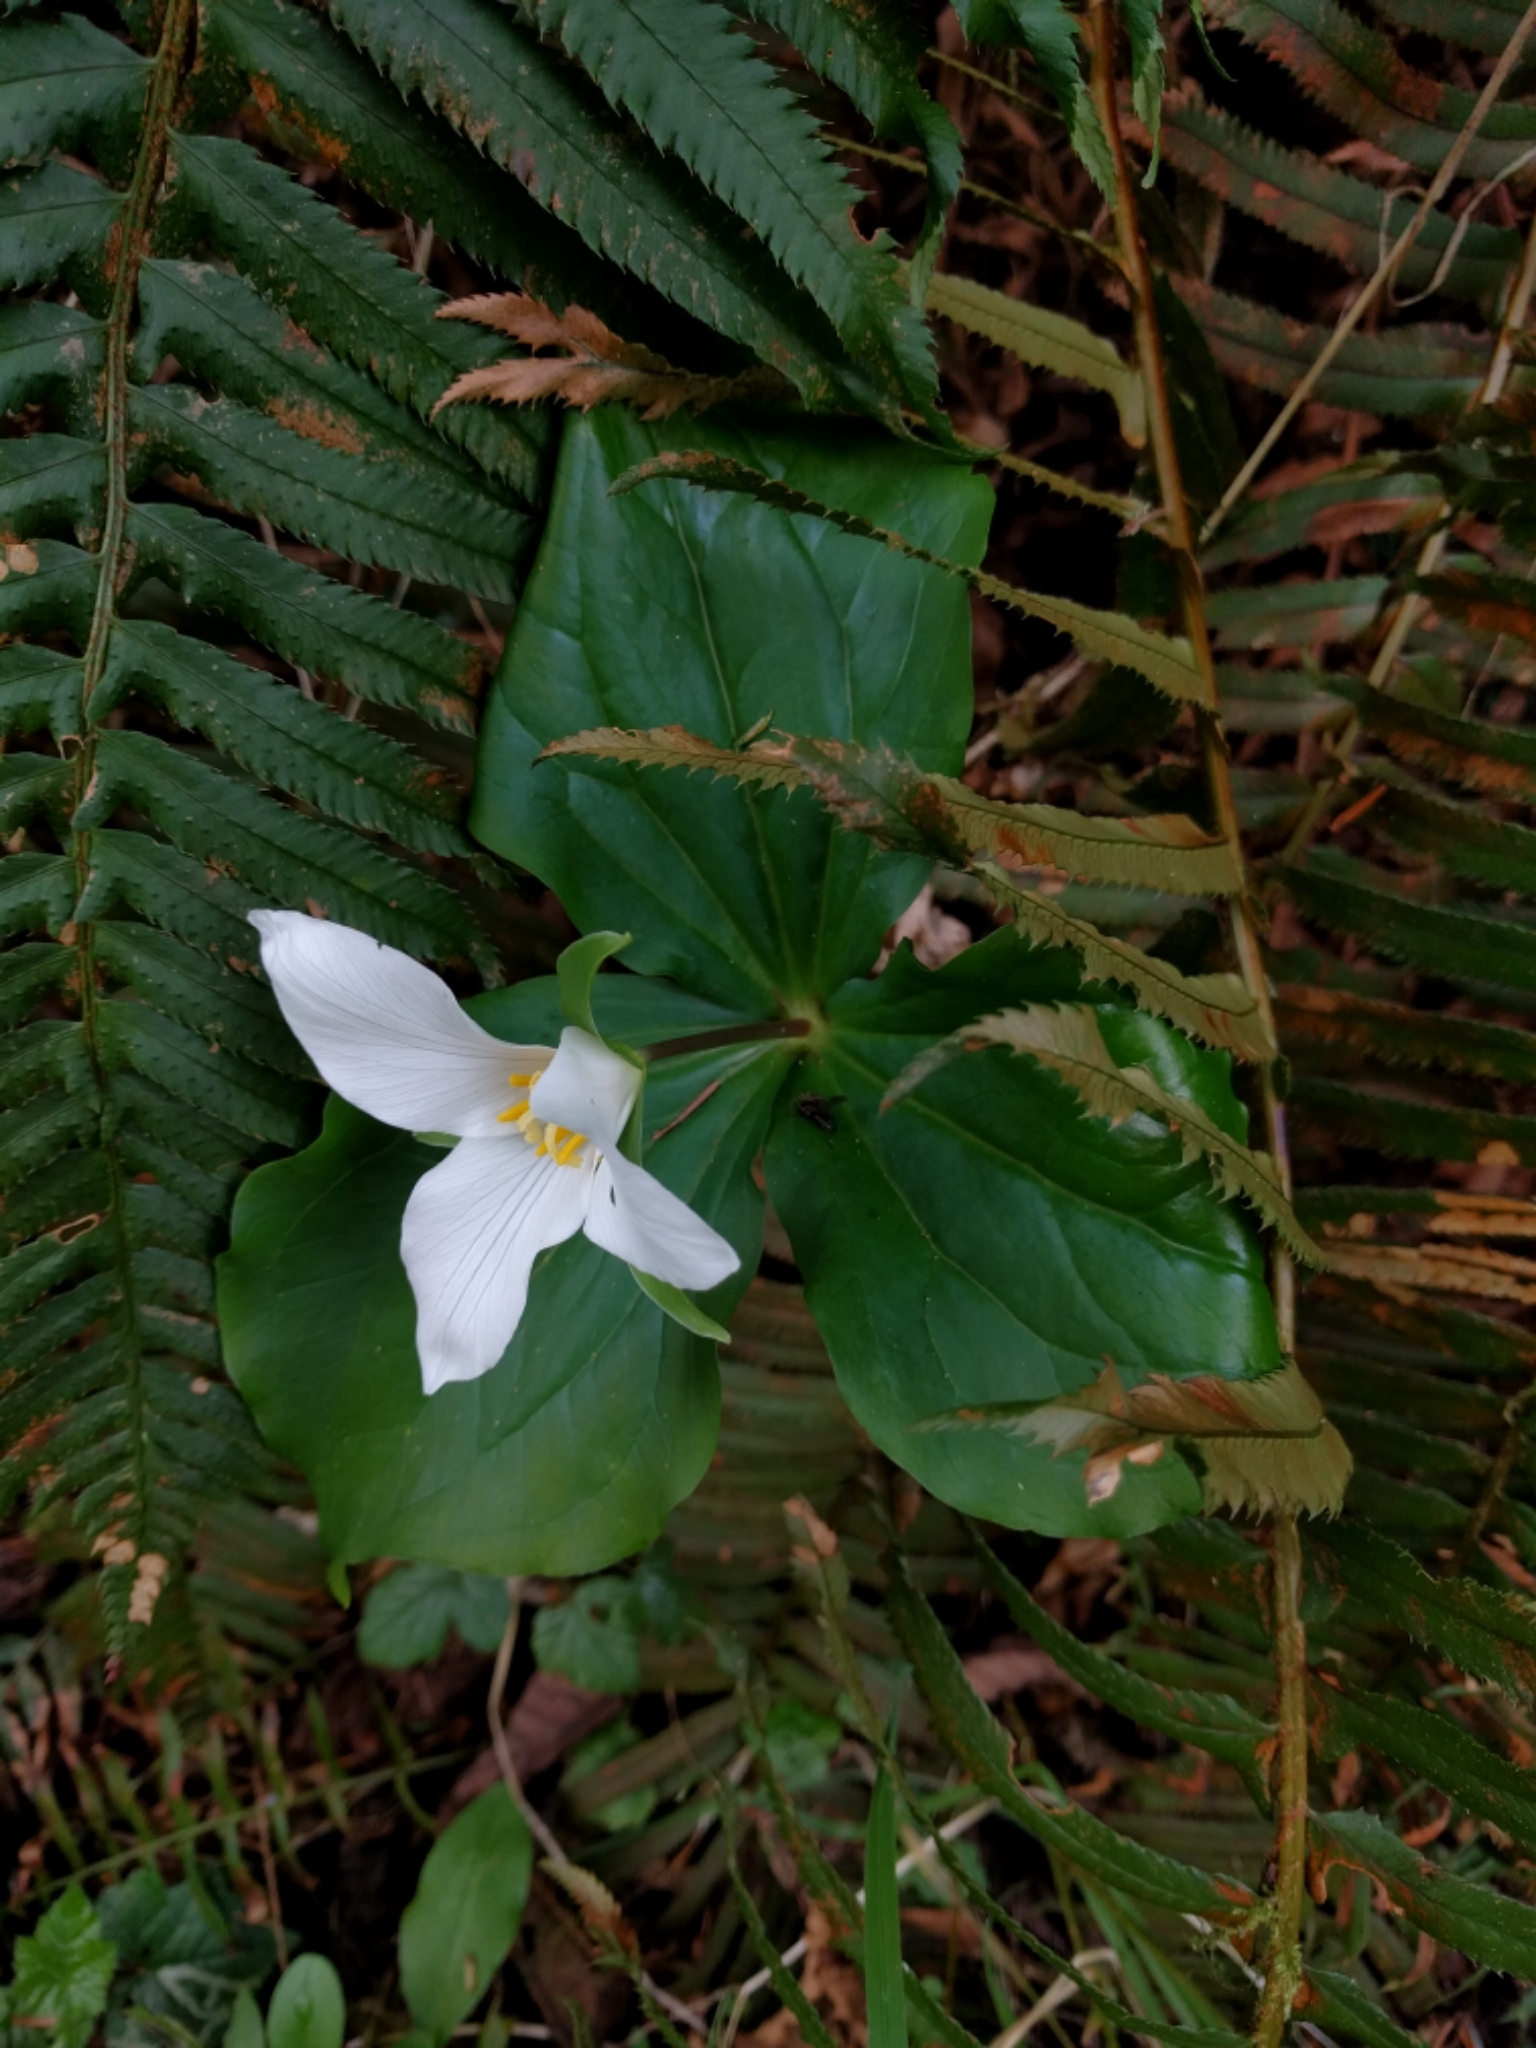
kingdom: Plantae
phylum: Tracheophyta
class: Liliopsida
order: Liliales
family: Melanthiaceae
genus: Trillium
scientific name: Trillium ovatum
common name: Pacific trillium
